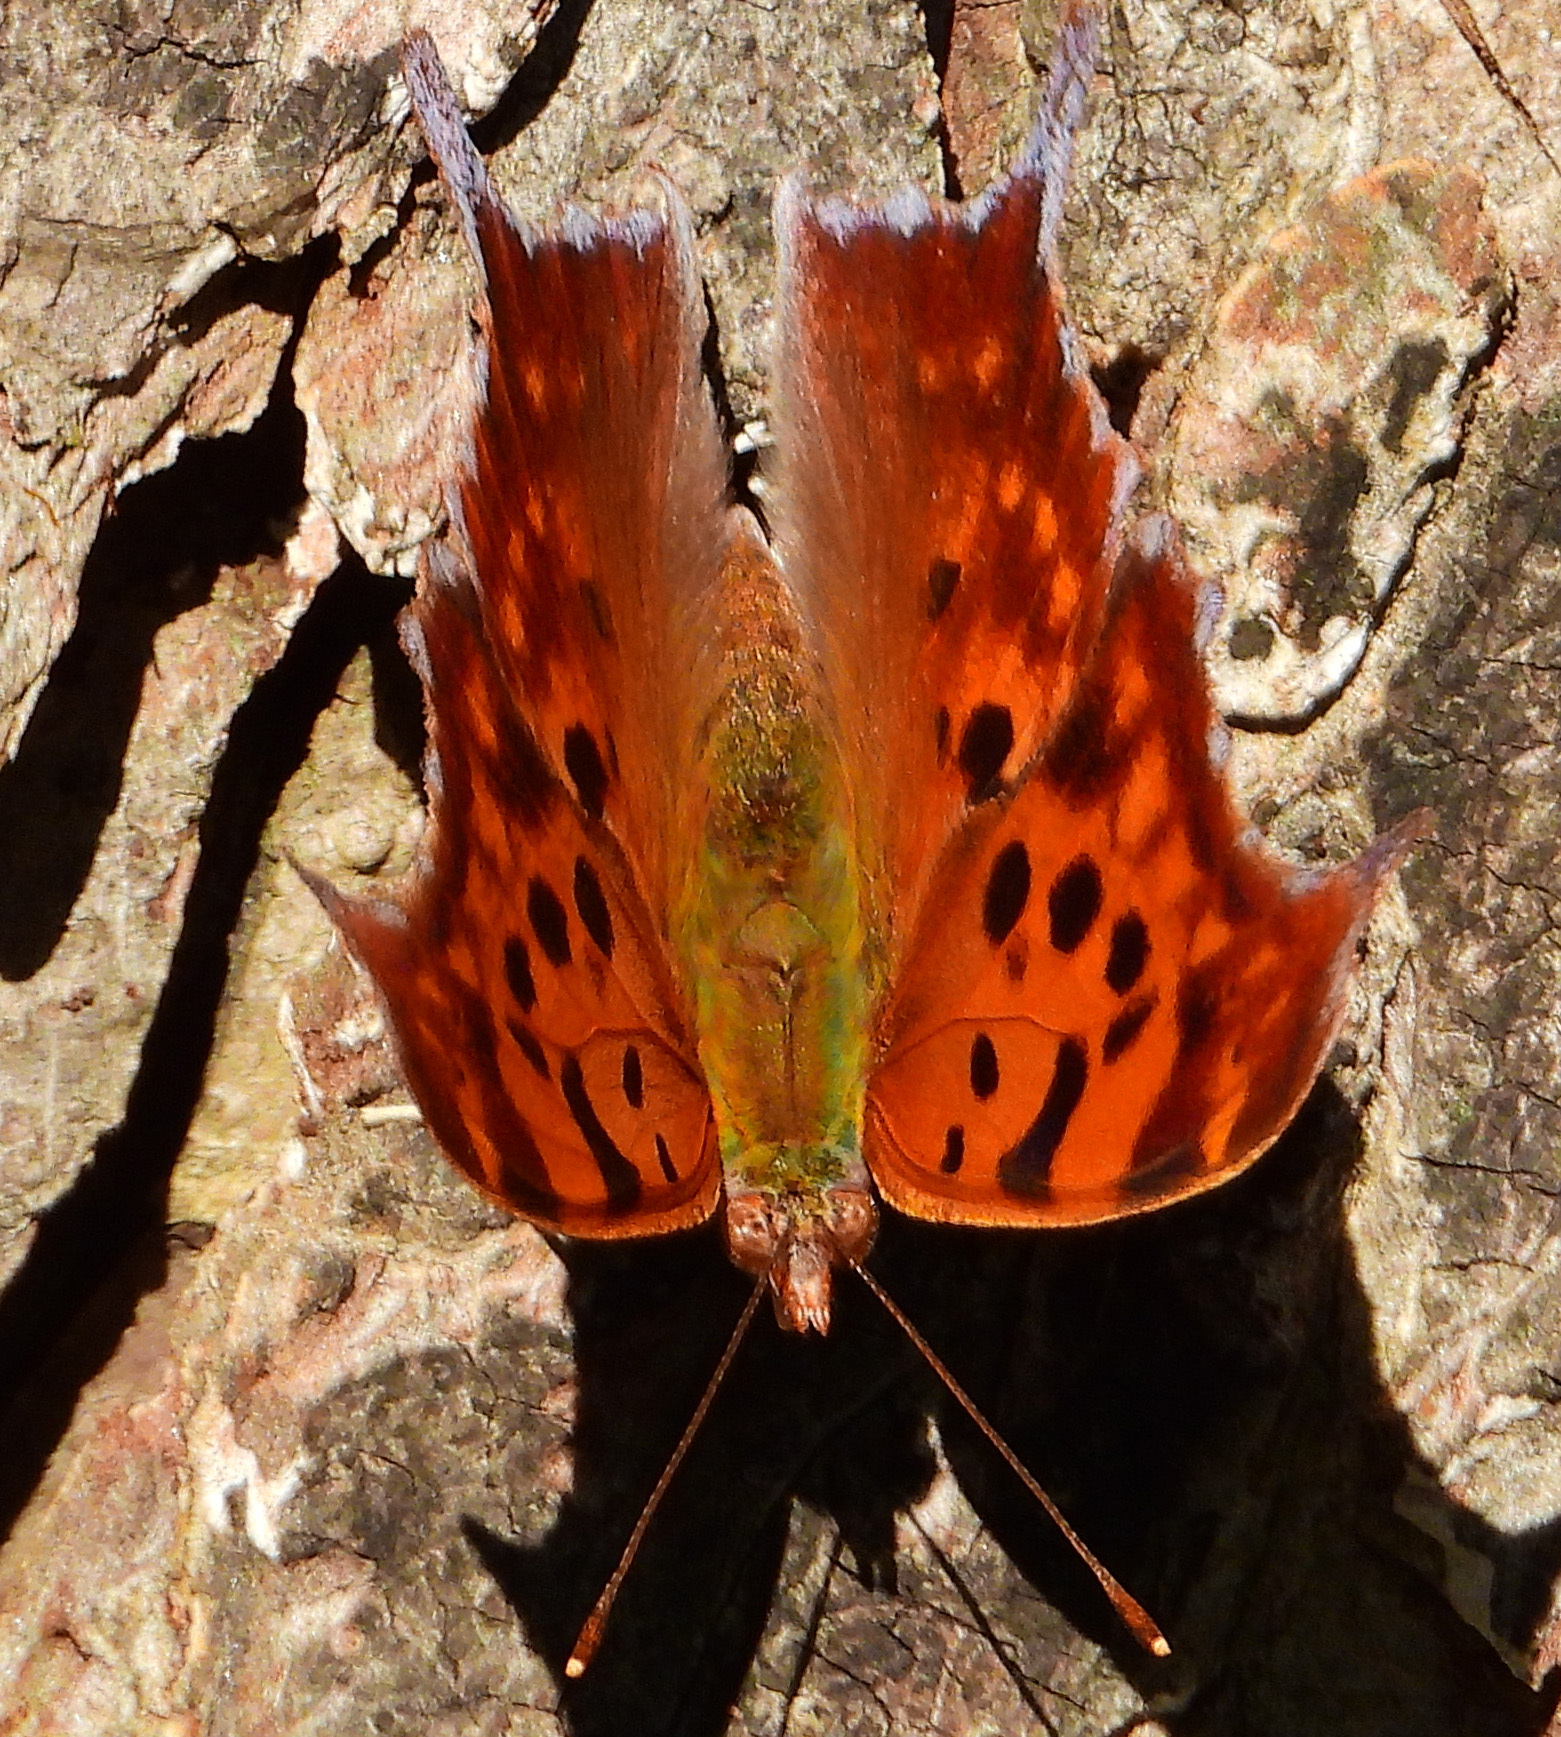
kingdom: Animalia
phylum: Arthropoda
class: Insecta
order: Lepidoptera
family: Nymphalidae
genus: Polygonia
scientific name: Polygonia interrogationis
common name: Question mark
